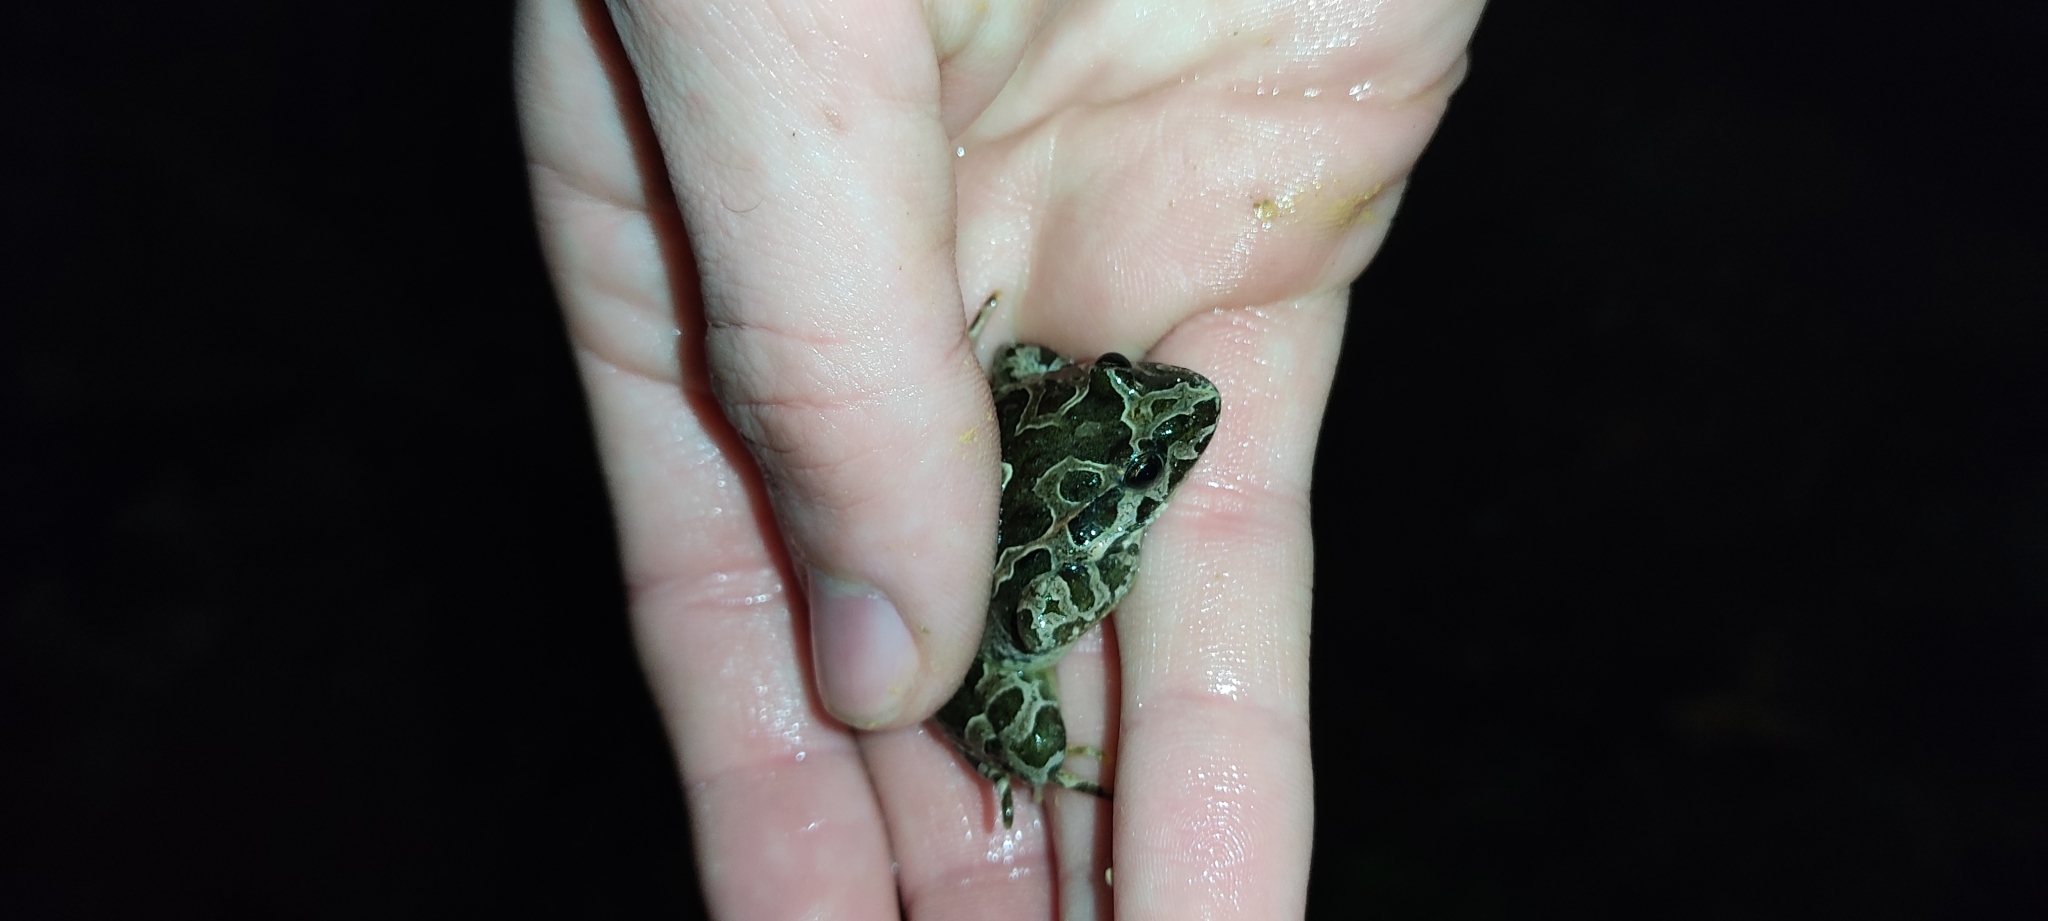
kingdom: Animalia
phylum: Chordata
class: Amphibia
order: Anura
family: Alytidae
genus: Discoglossus
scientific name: Discoglossus pictus
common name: Painted frog
